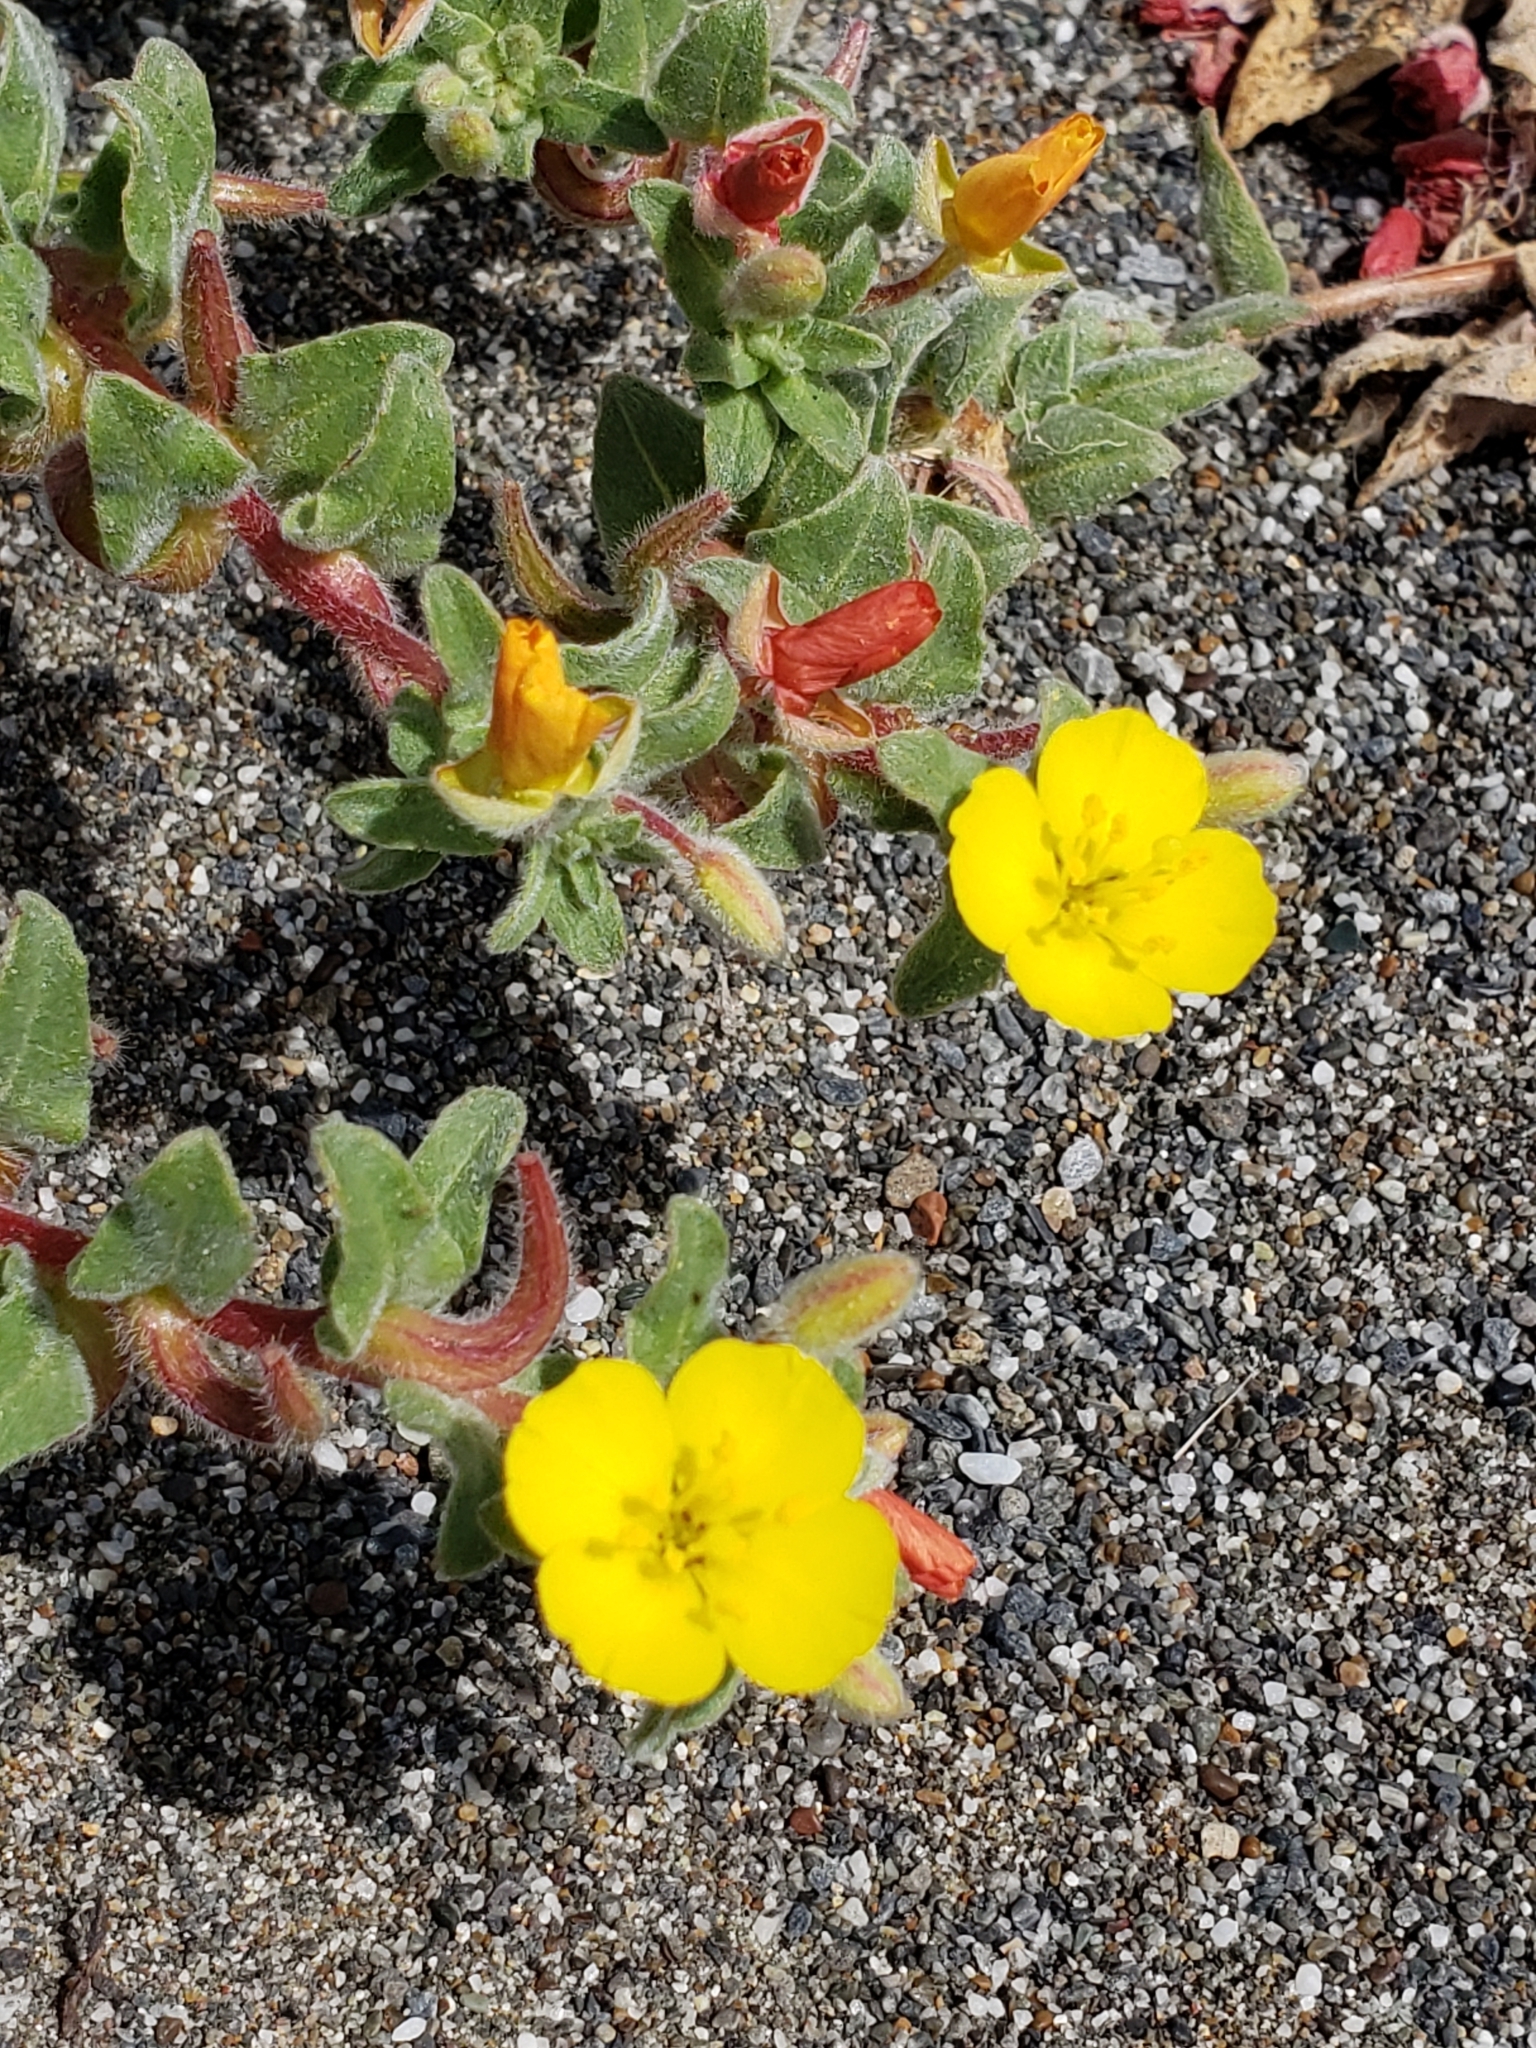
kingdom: Plantae
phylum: Tracheophyta
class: Magnoliopsida
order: Myrtales
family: Onagraceae
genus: Camissoniopsis
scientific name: Camissoniopsis cheiranthifolia
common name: Beach suncup
